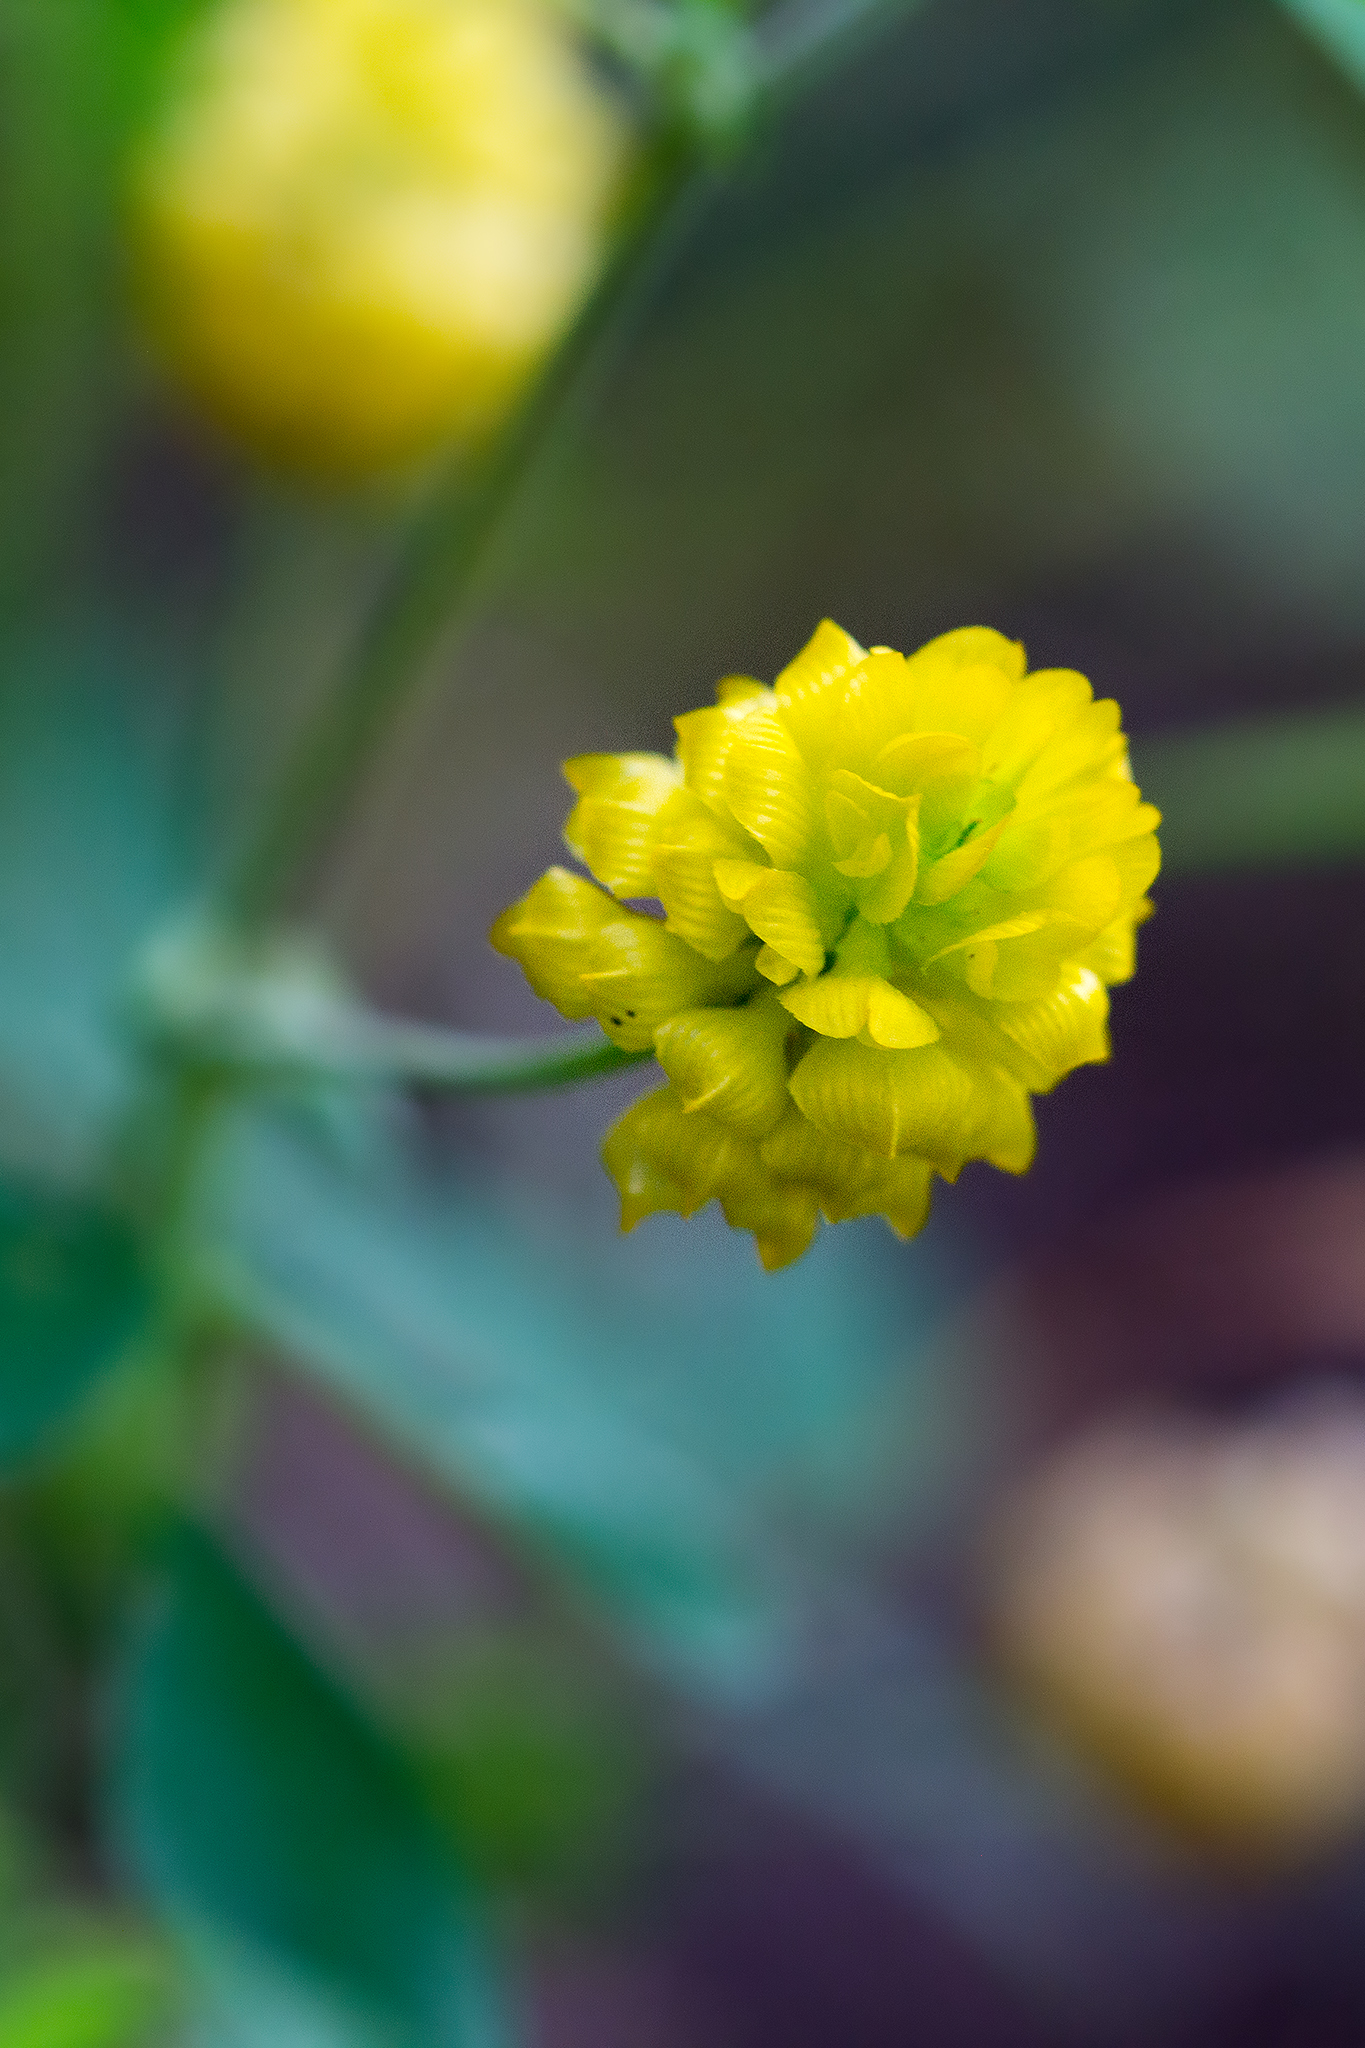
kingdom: Plantae
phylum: Tracheophyta
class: Magnoliopsida
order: Fabales
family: Fabaceae
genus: Trifolium
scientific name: Trifolium campestre
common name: Field clover
